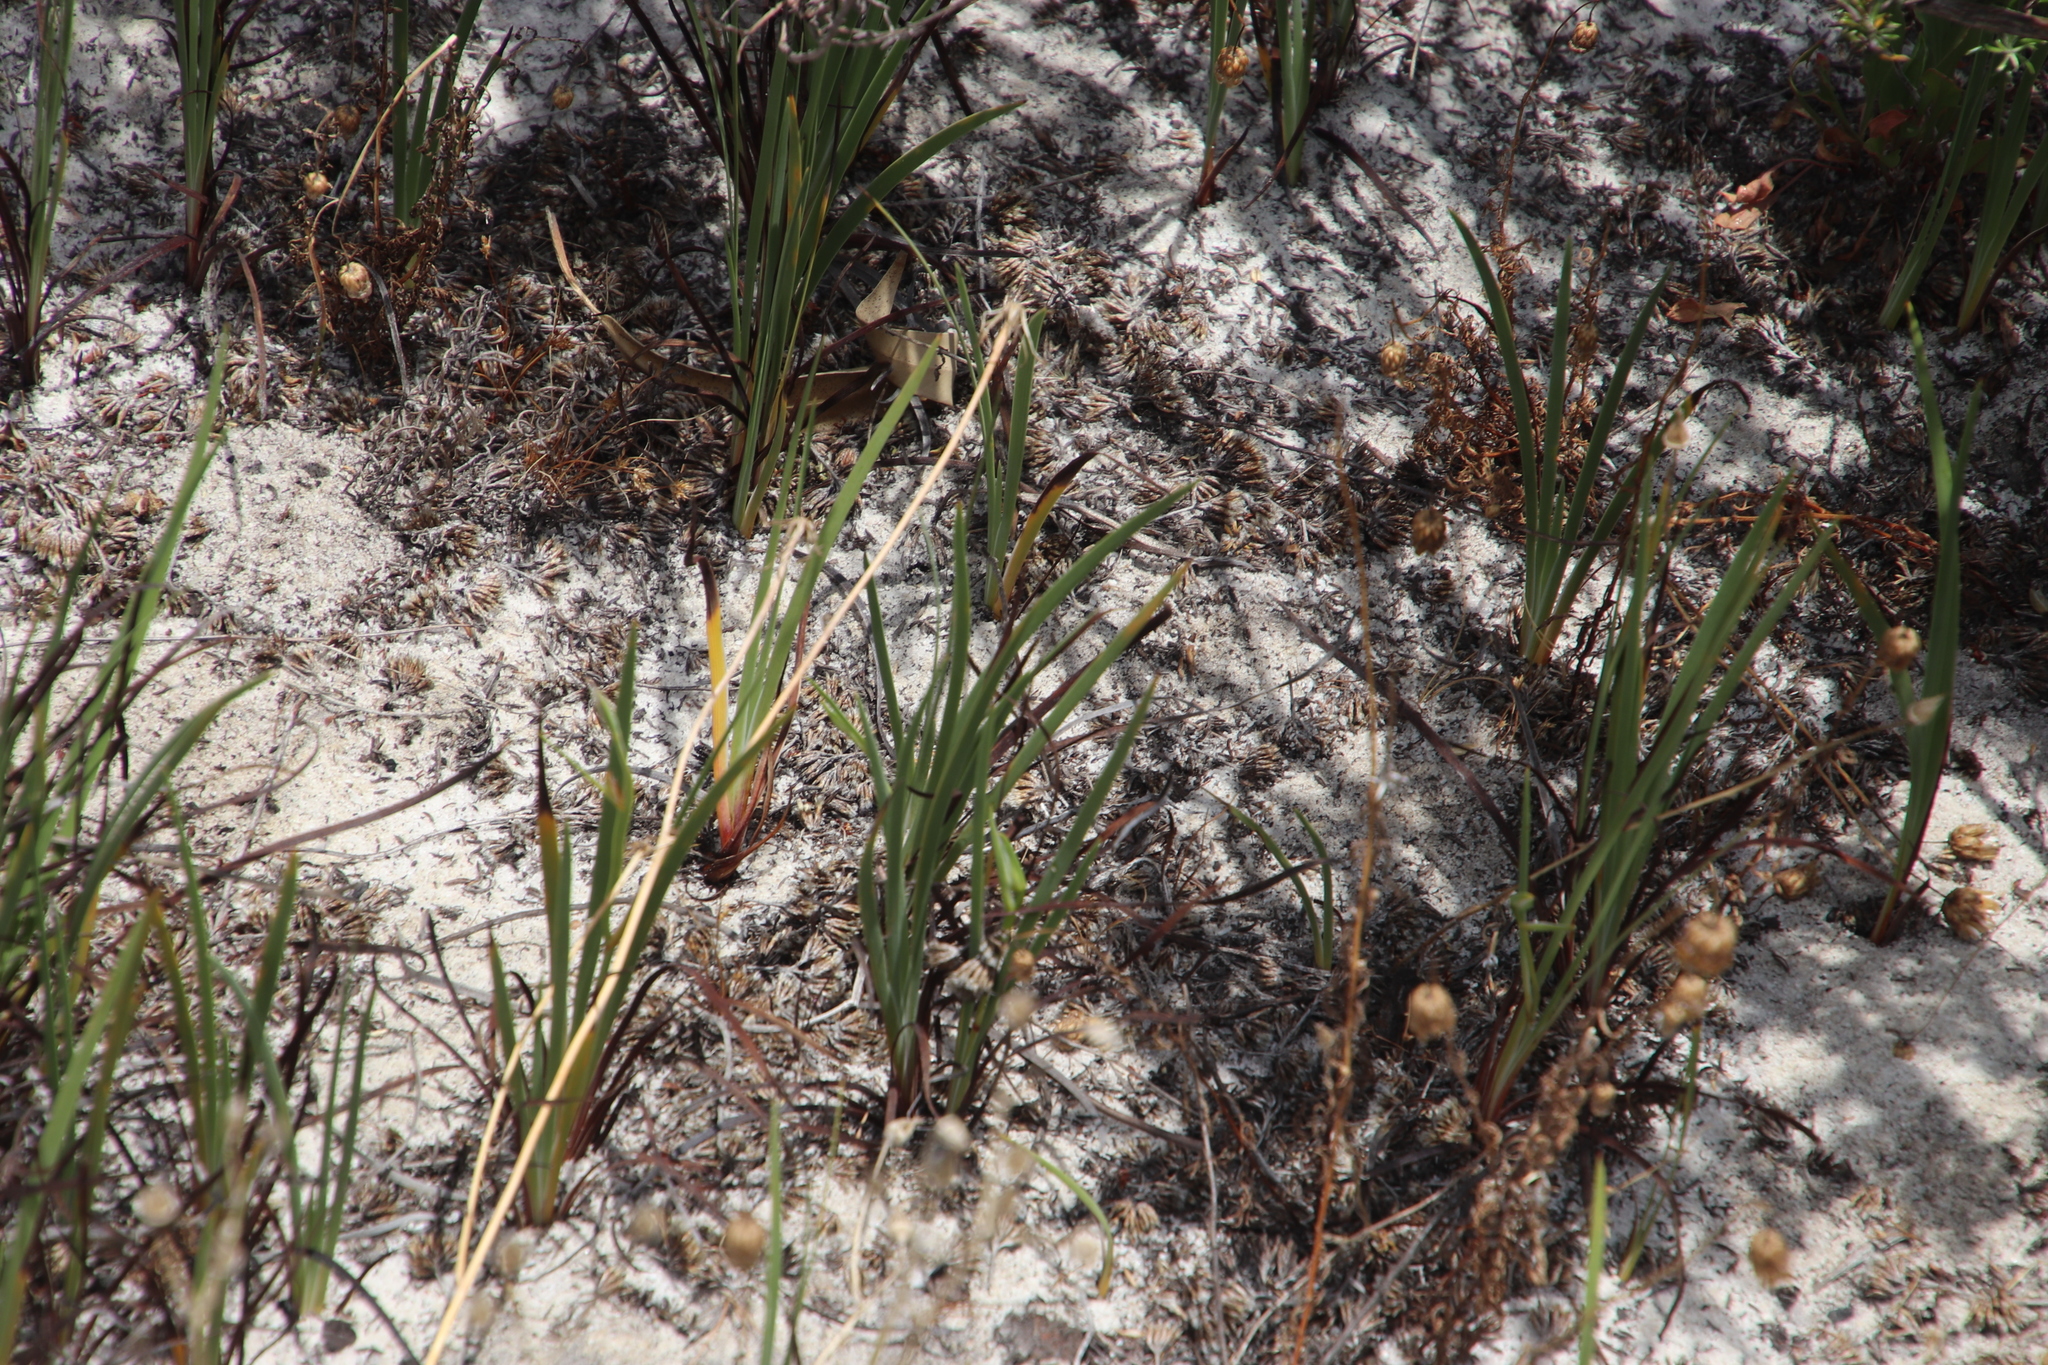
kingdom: Plantae
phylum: Tracheophyta
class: Liliopsida
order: Asparagales
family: Iridaceae
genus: Aristea
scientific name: Aristea africana
